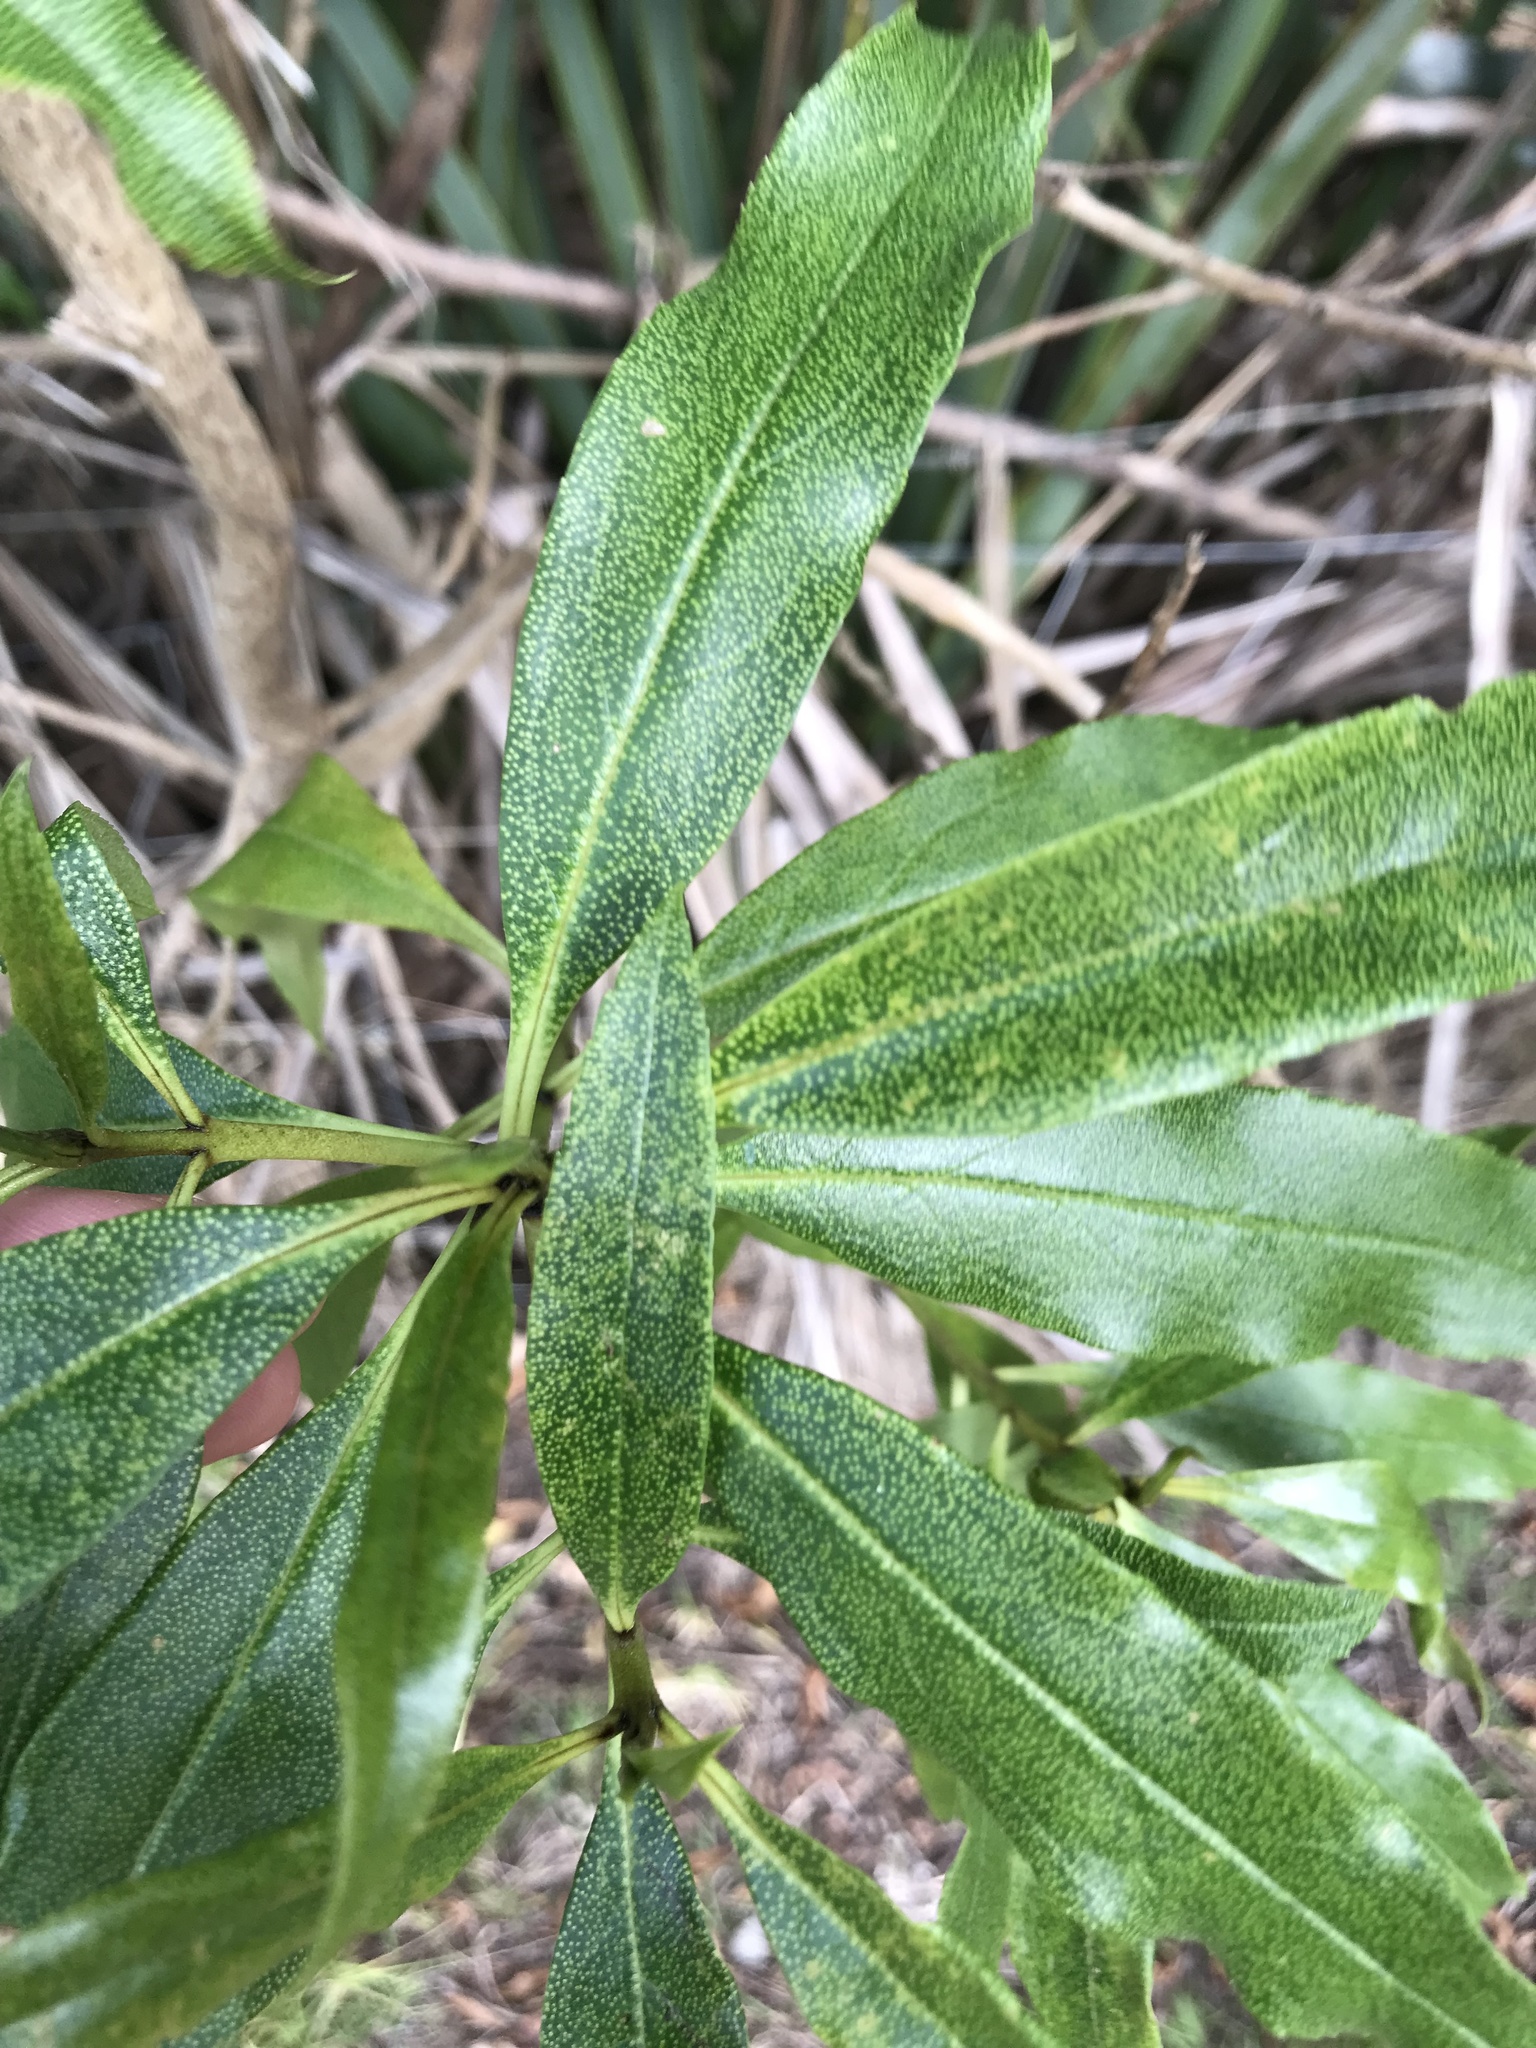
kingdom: Plantae
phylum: Tracheophyta
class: Magnoliopsida
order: Lamiales
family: Scrophulariaceae
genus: Myoporum
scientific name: Myoporum laetum
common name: Ngaio tree
